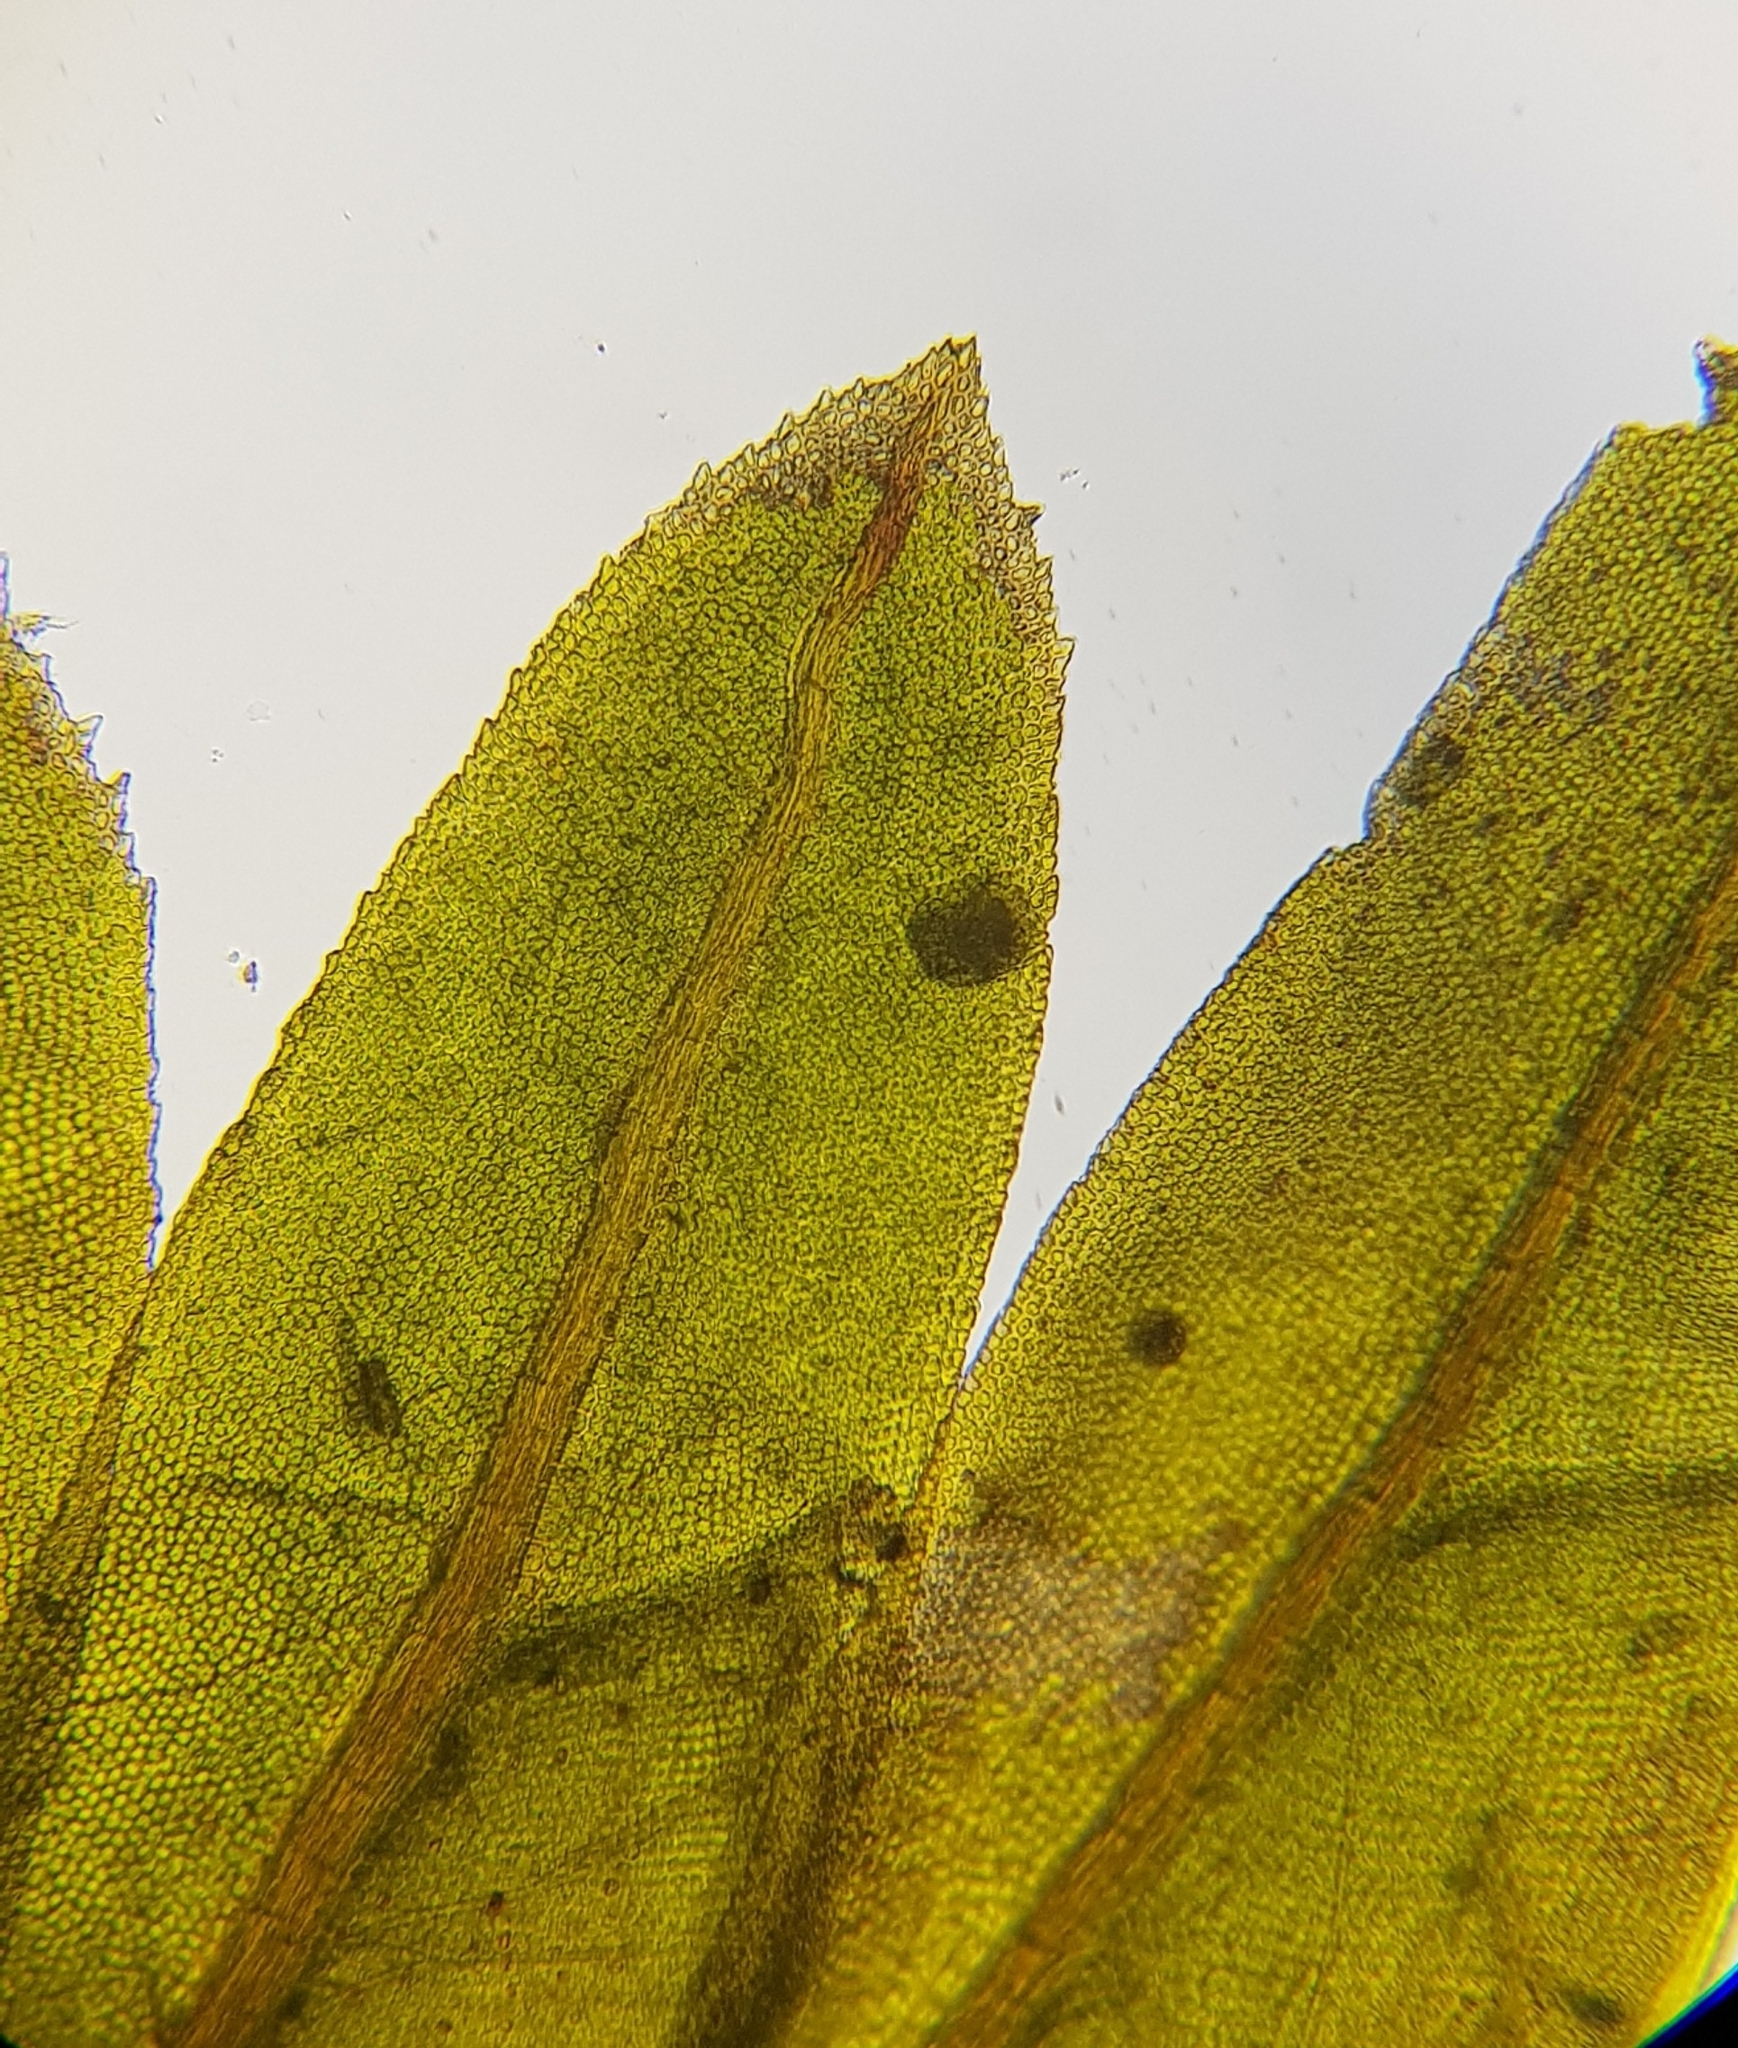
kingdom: Plantae
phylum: Bryophyta
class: Bryopsida
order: Dicranales
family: Fissidentaceae
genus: Fissidens
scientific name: Fissidens dubius
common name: Rock pocket moss
